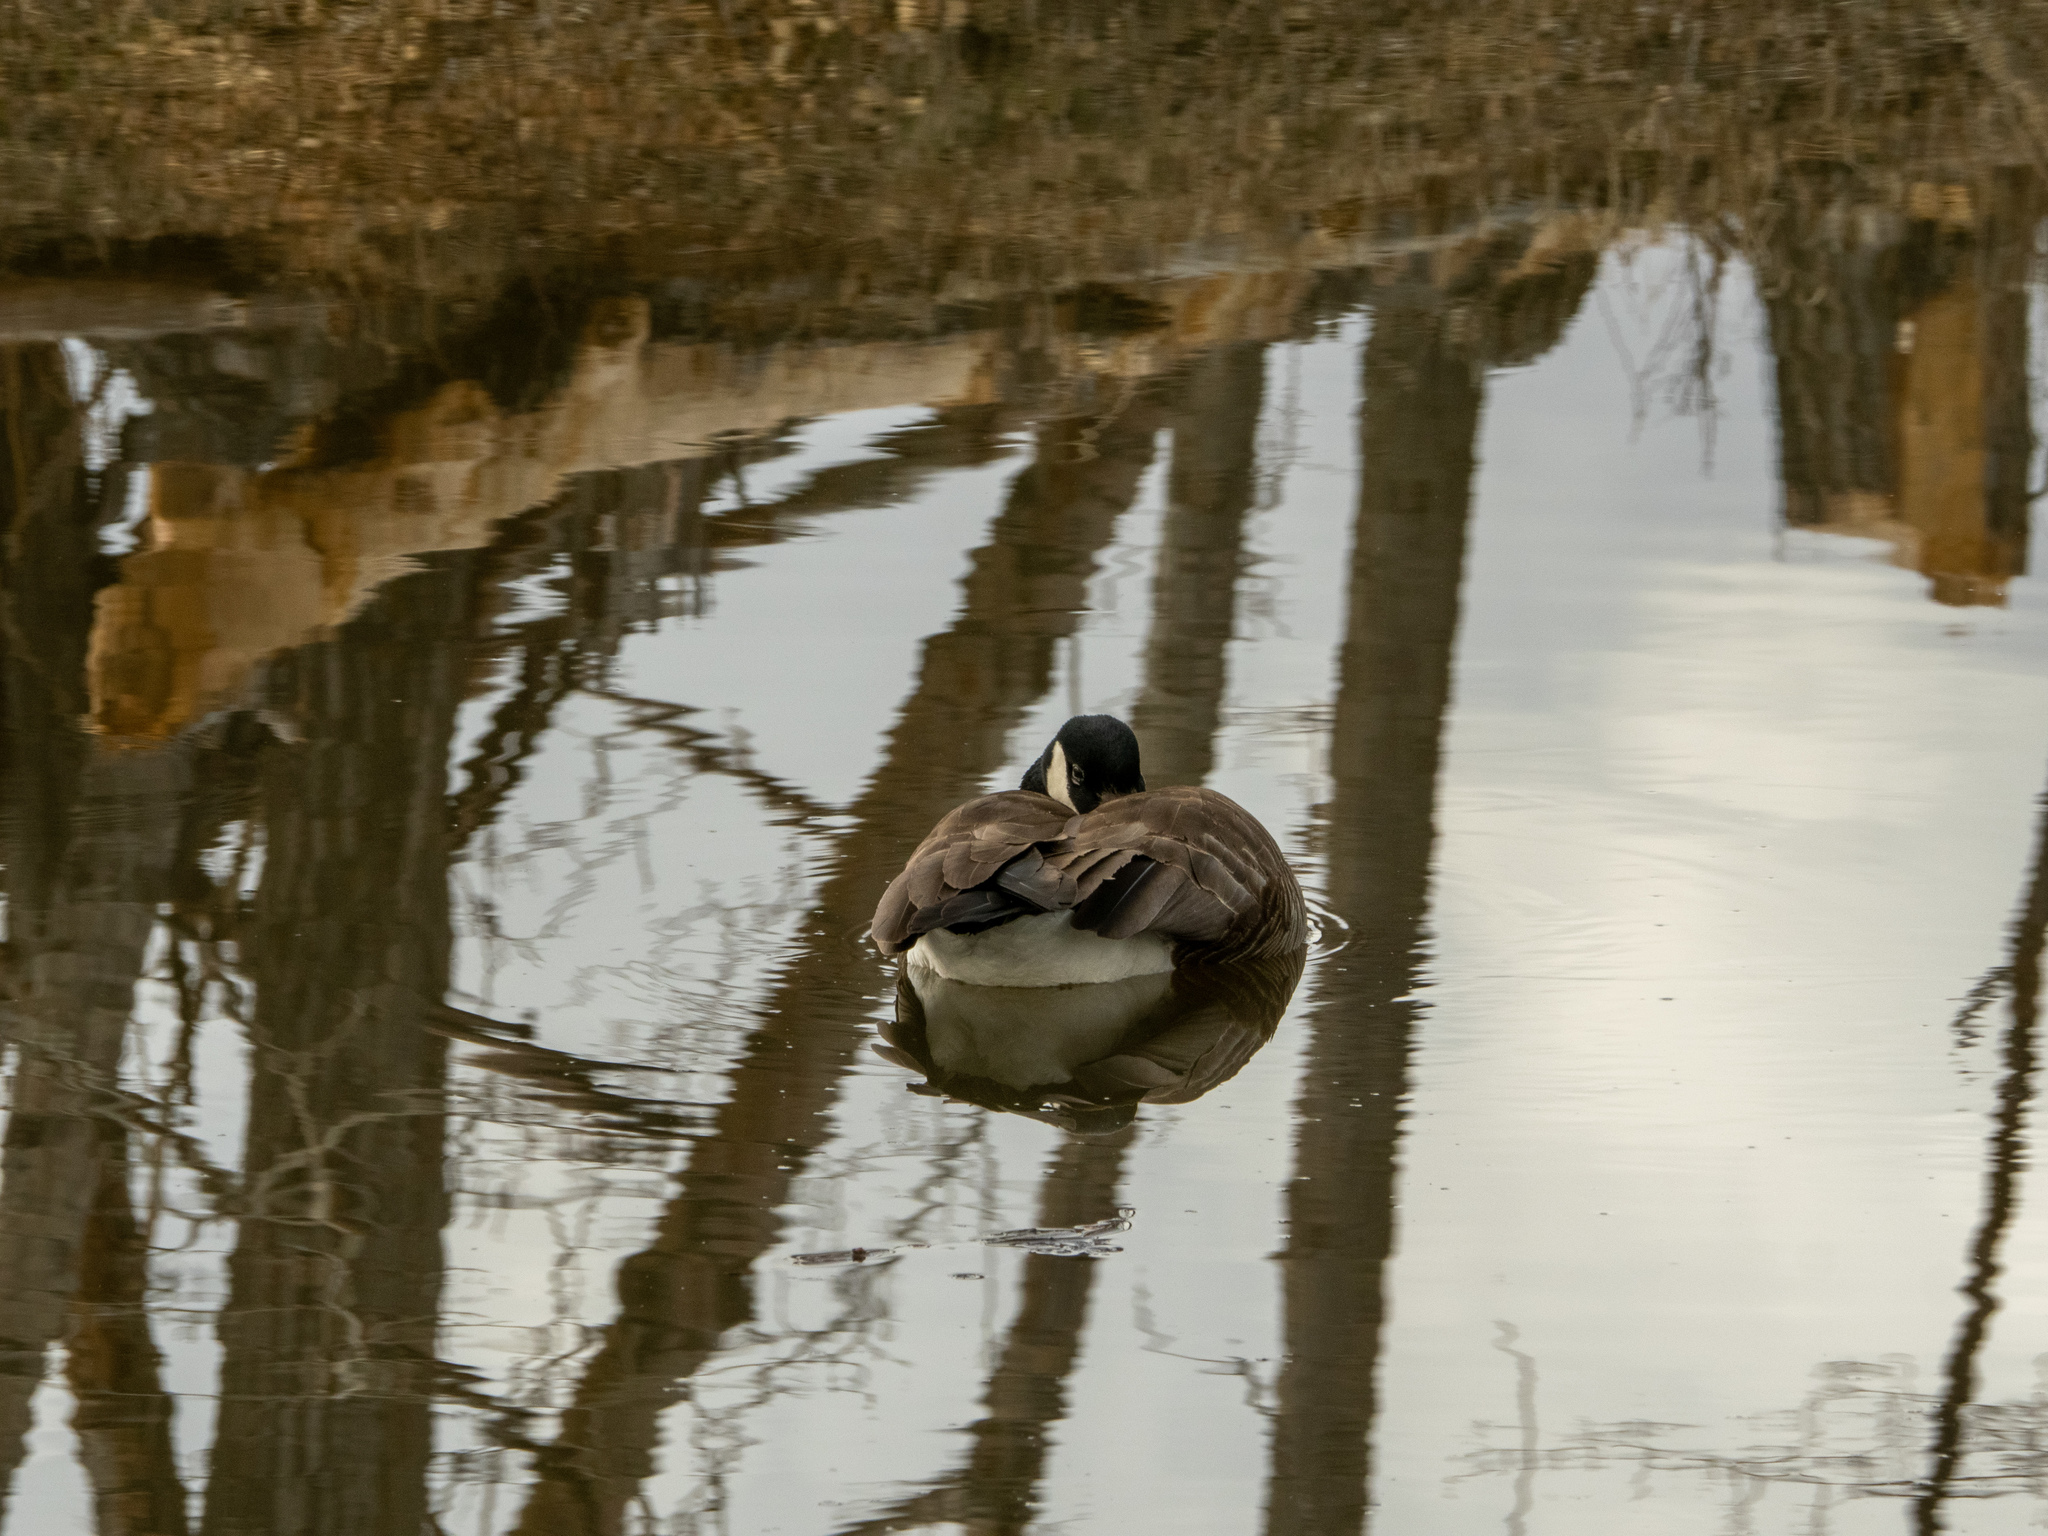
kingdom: Animalia
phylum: Chordata
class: Aves
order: Anseriformes
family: Anatidae
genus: Branta
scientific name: Branta canadensis
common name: Canada goose
